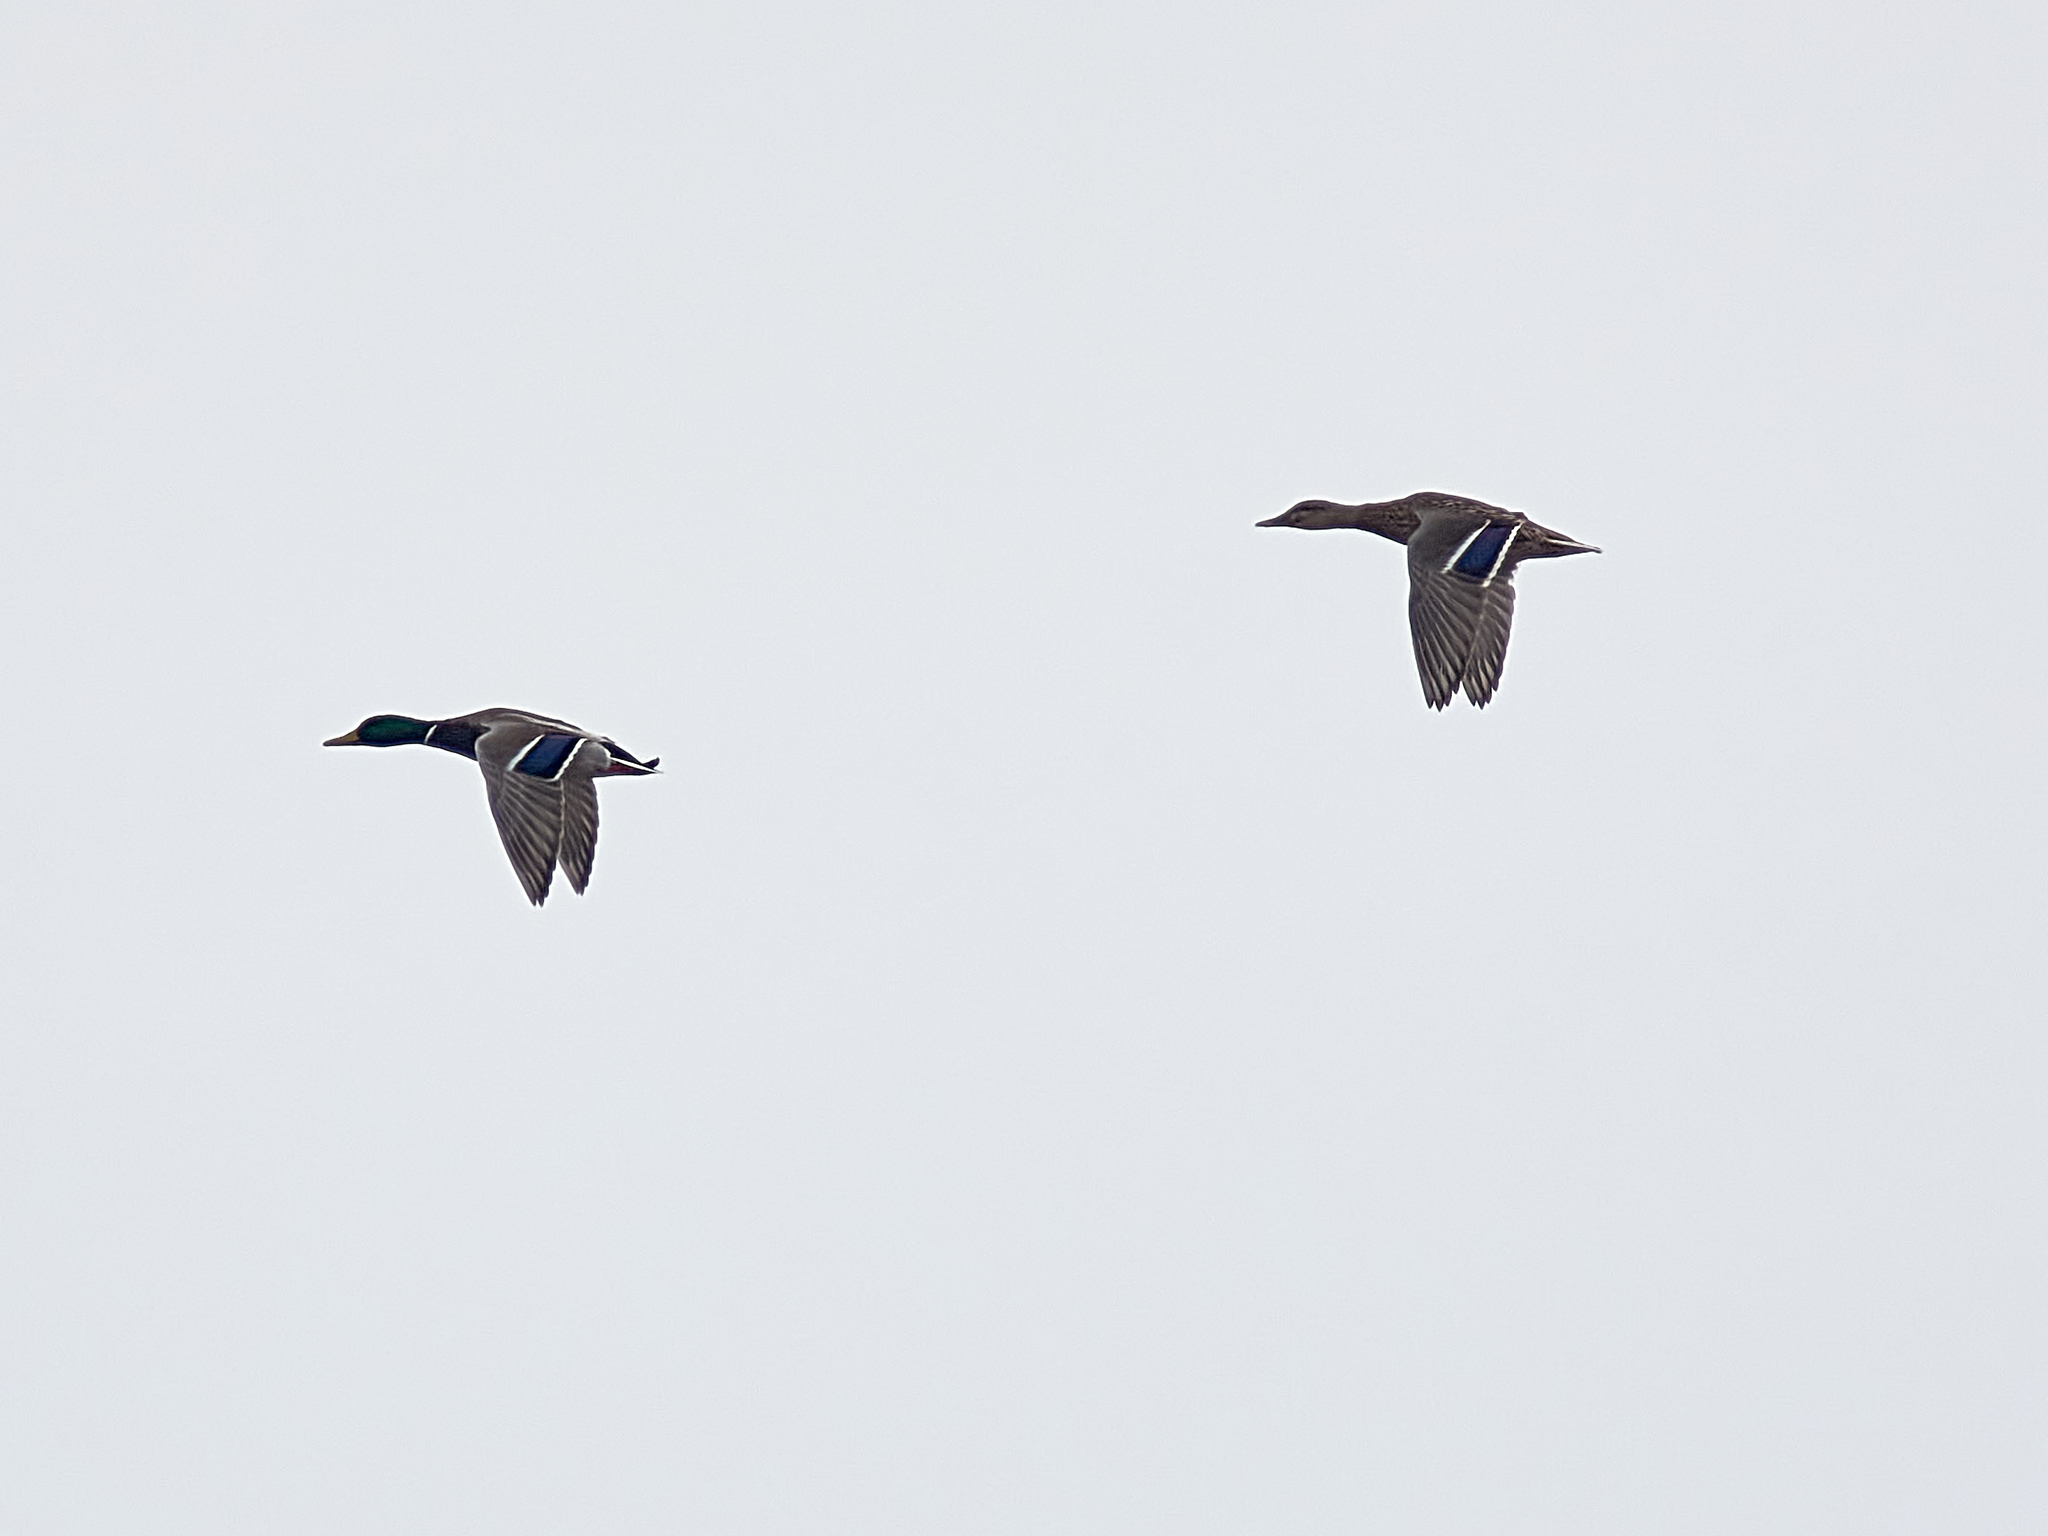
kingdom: Animalia
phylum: Chordata
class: Aves
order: Anseriformes
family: Anatidae
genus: Anas
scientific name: Anas platyrhynchos
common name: Mallard
